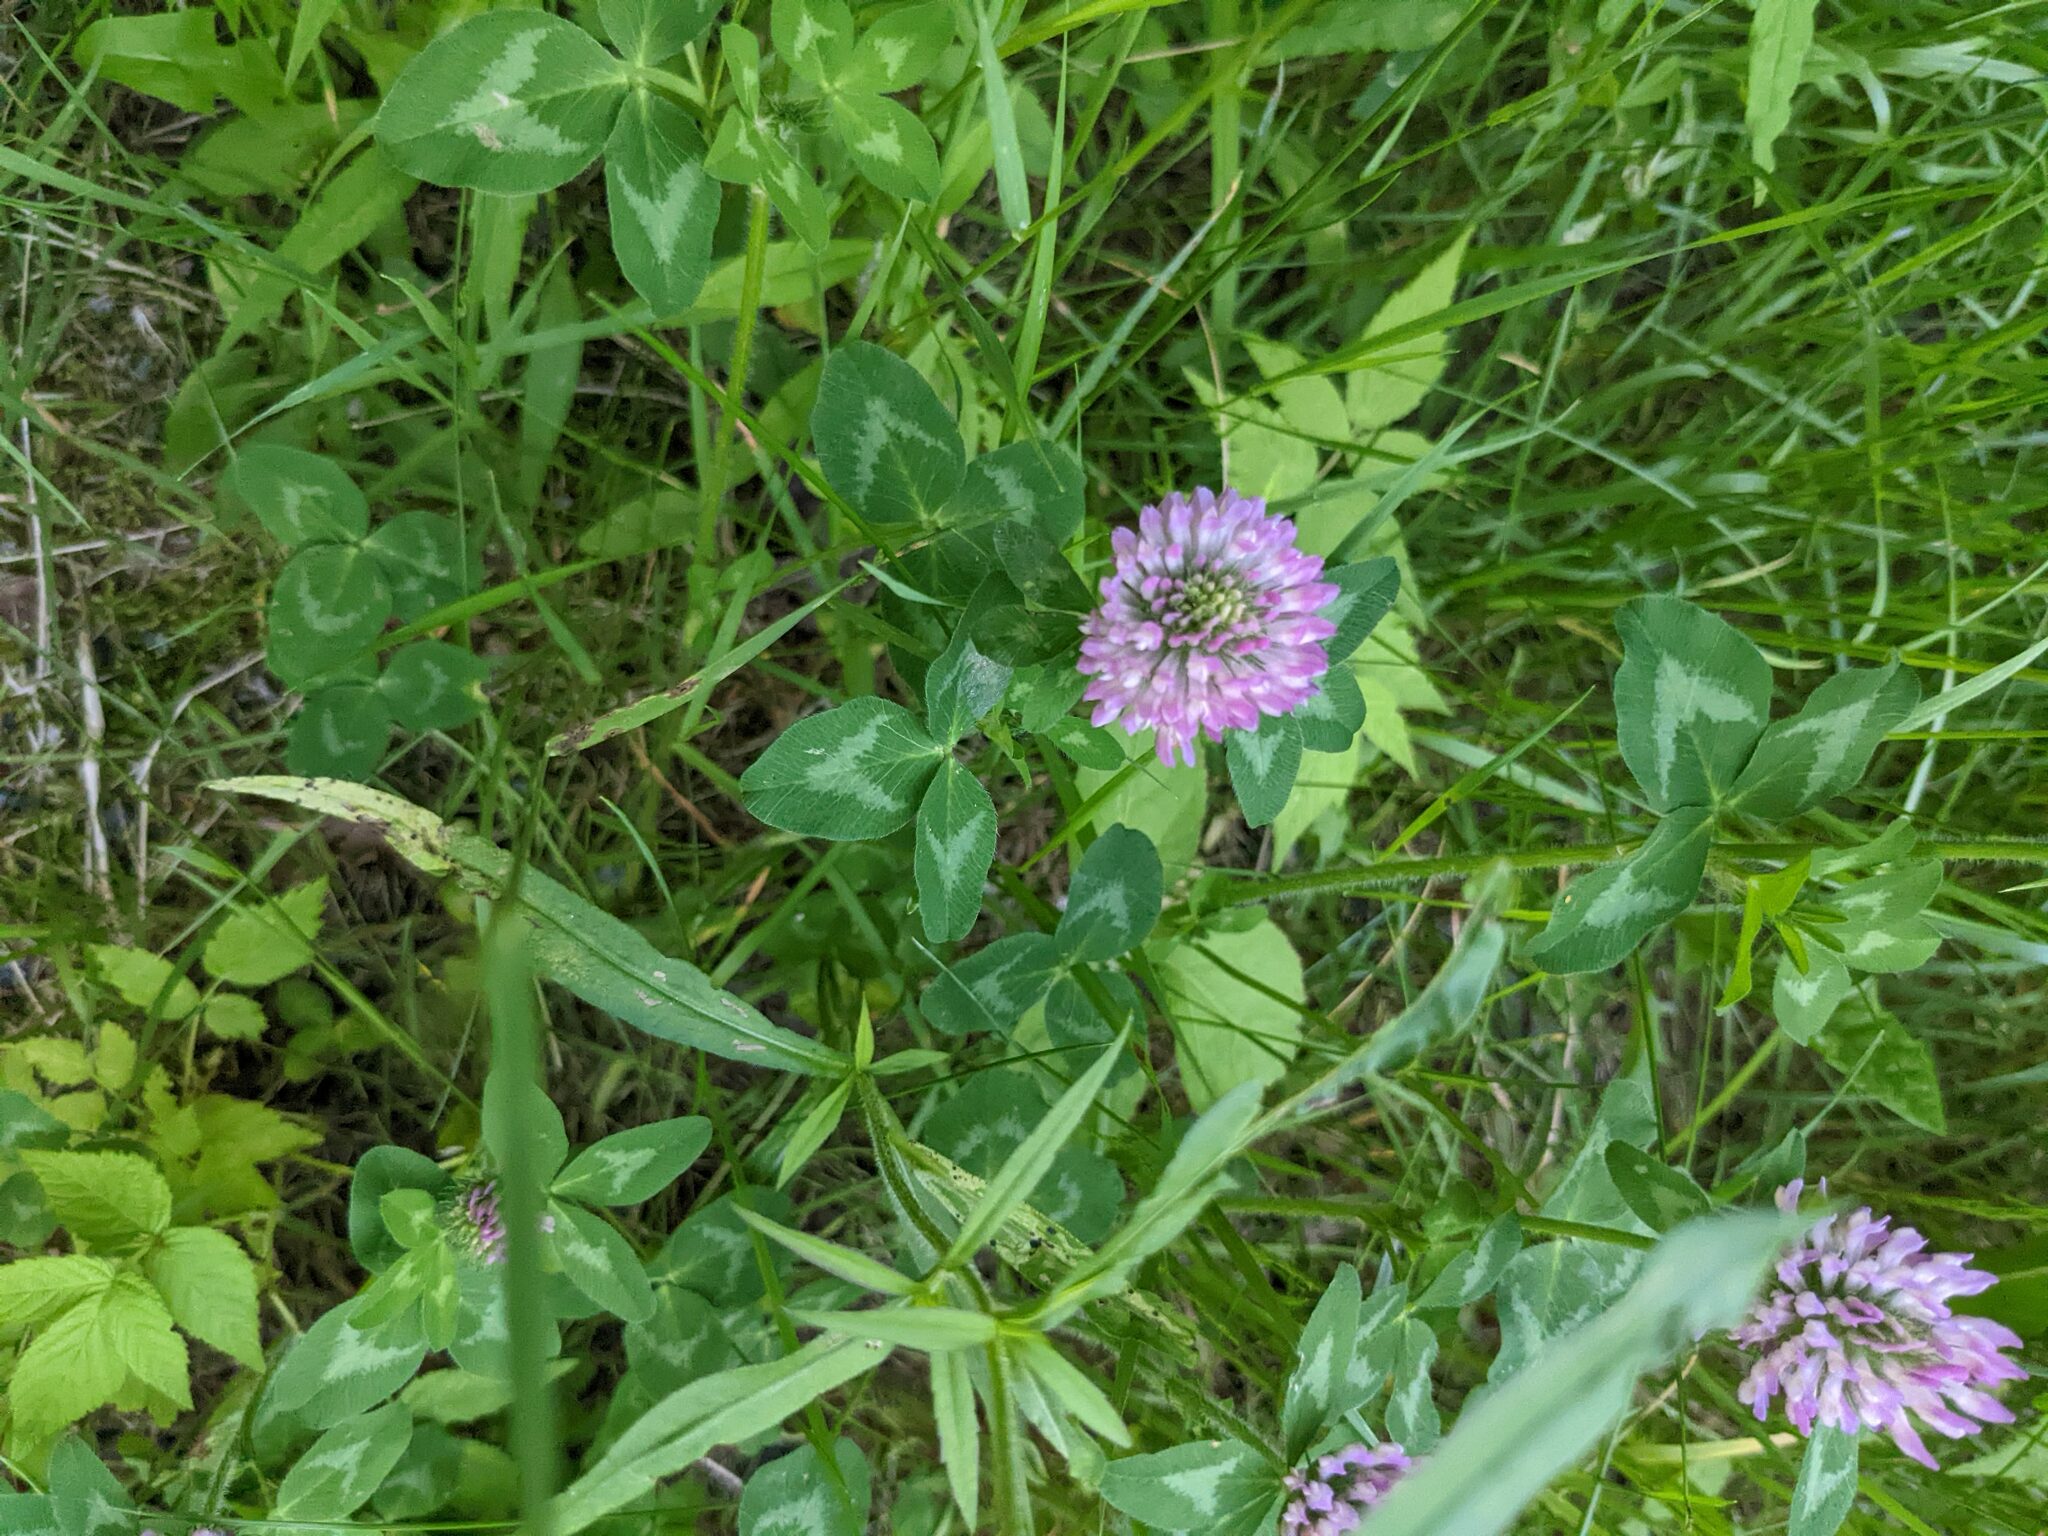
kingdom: Plantae
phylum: Tracheophyta
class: Magnoliopsida
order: Fabales
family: Fabaceae
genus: Trifolium
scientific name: Trifolium pratense
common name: Red clover
